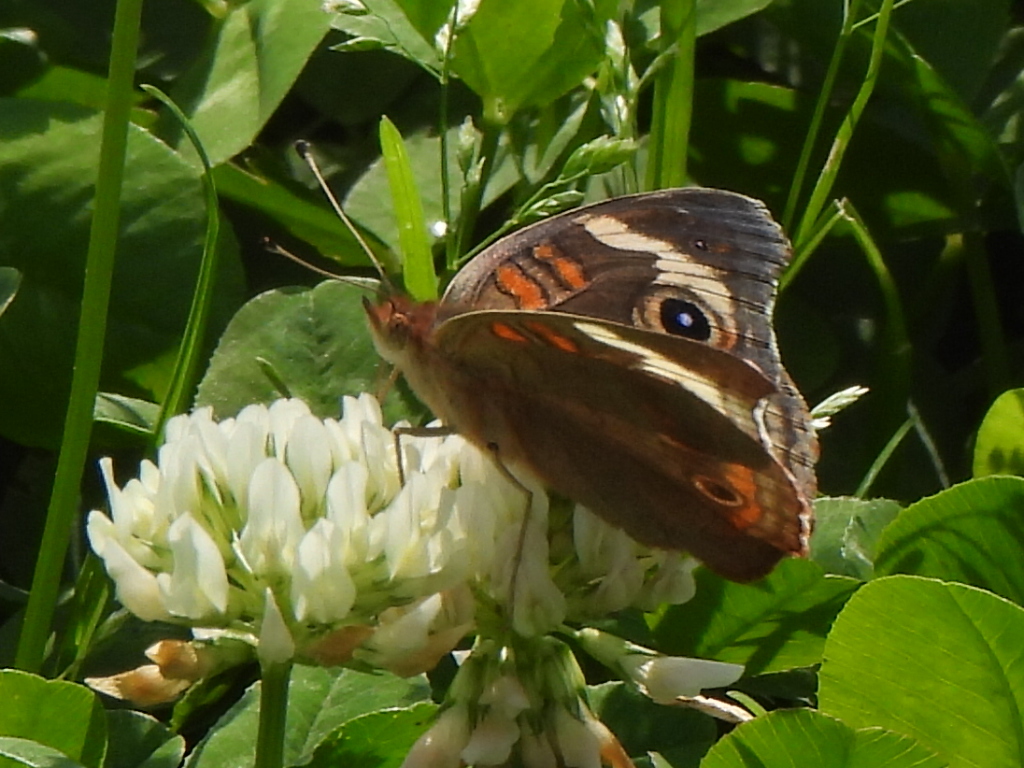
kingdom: Animalia
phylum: Arthropoda
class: Insecta
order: Lepidoptera
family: Nymphalidae
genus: Junonia
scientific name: Junonia coenia
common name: Common buckeye
